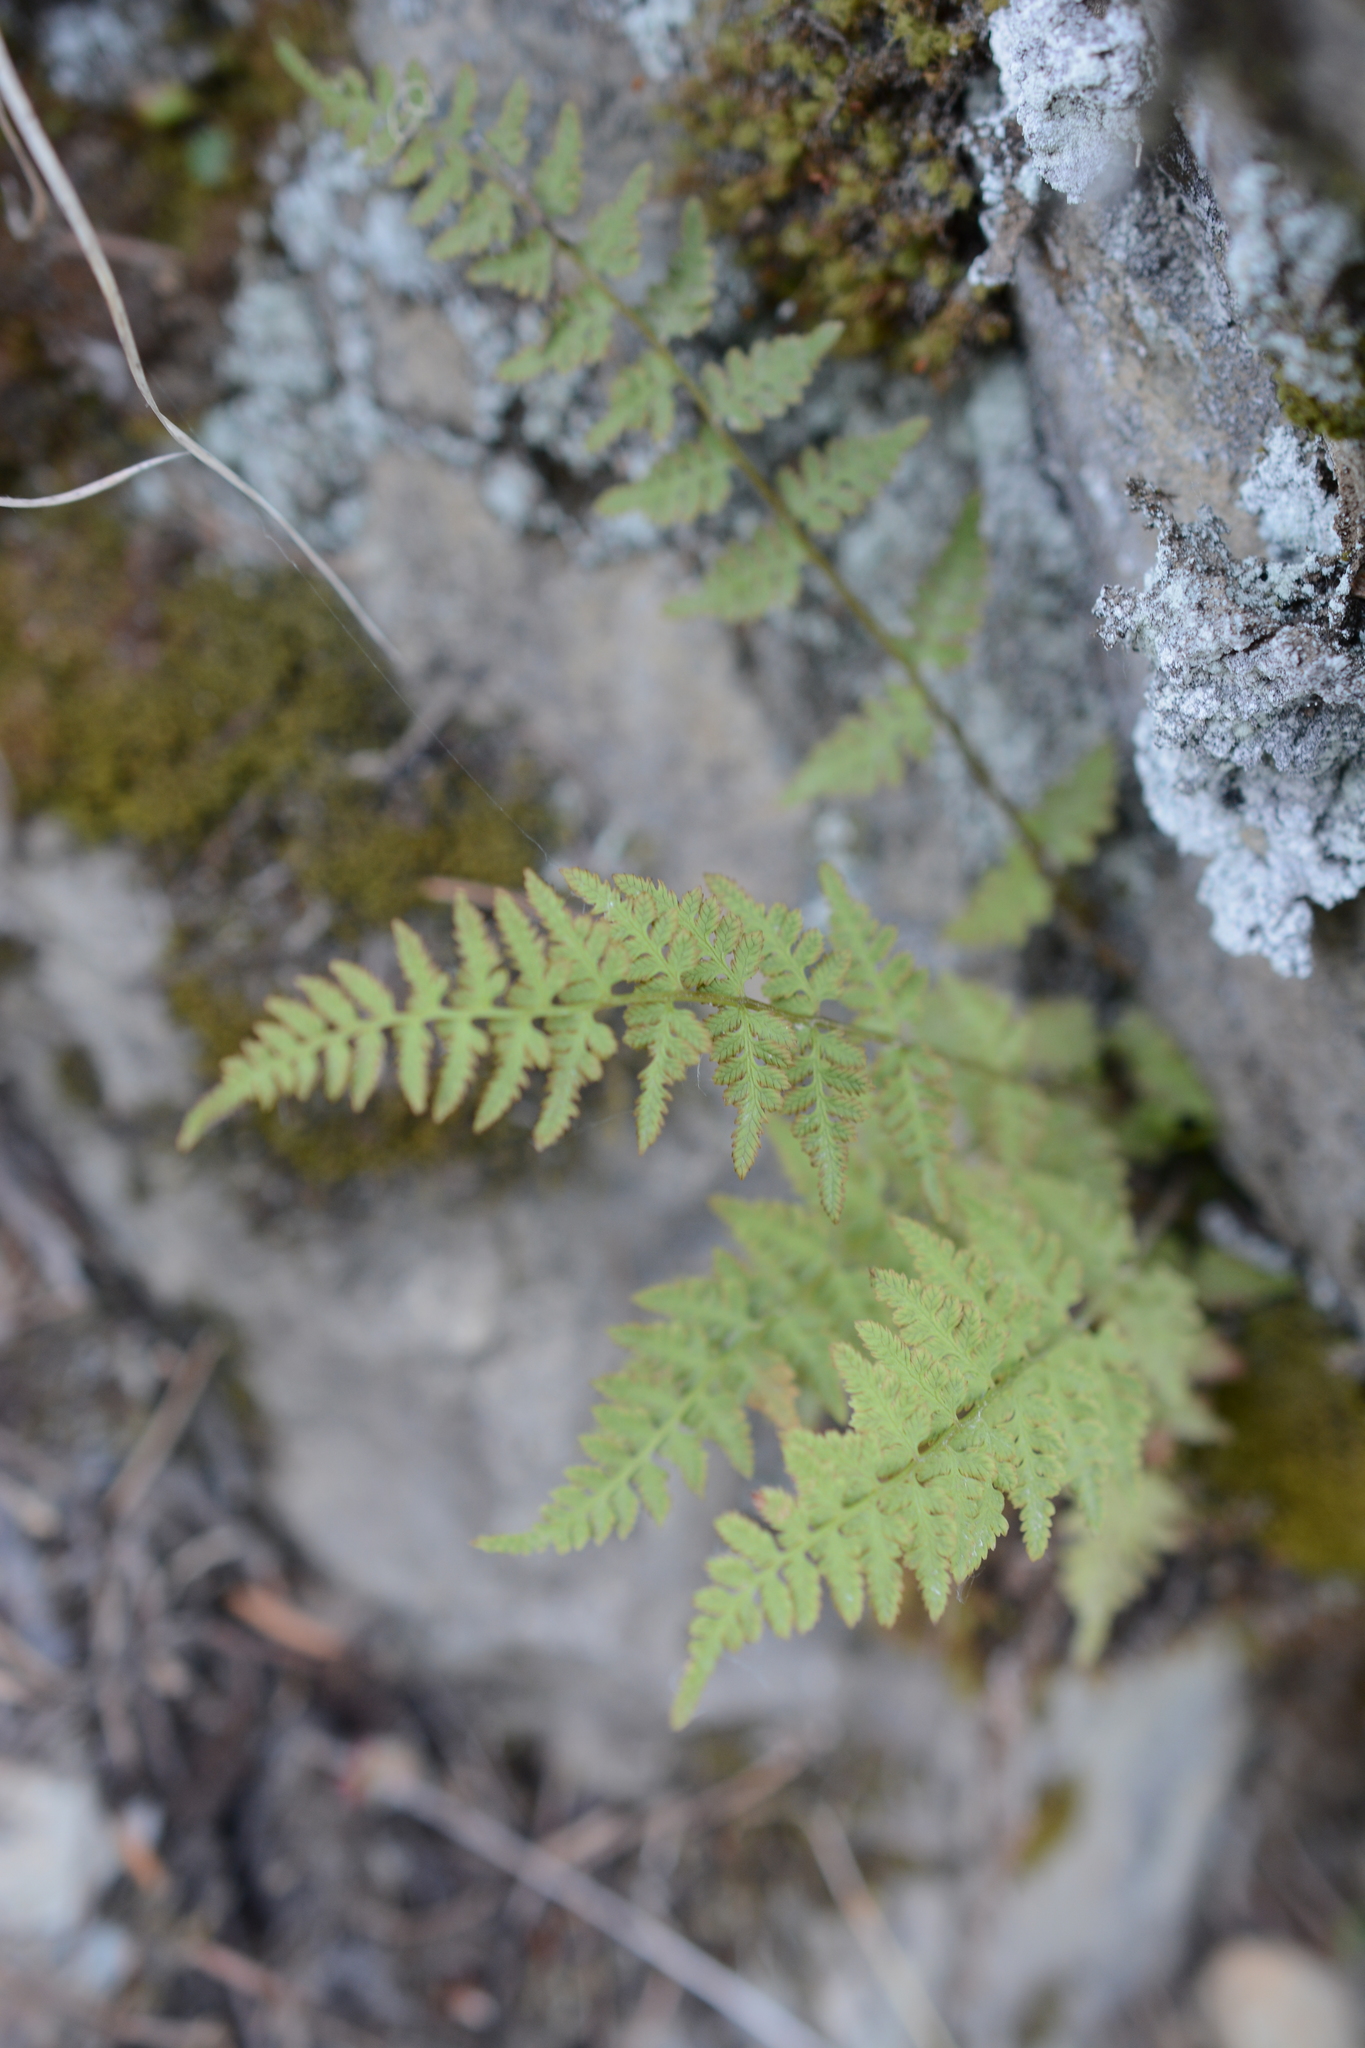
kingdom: Plantae
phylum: Tracheophyta
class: Polypodiopsida
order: Polypodiales
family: Cystopteridaceae
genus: Cystopteris
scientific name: Cystopteris fragilis
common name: Brittle bladder fern
